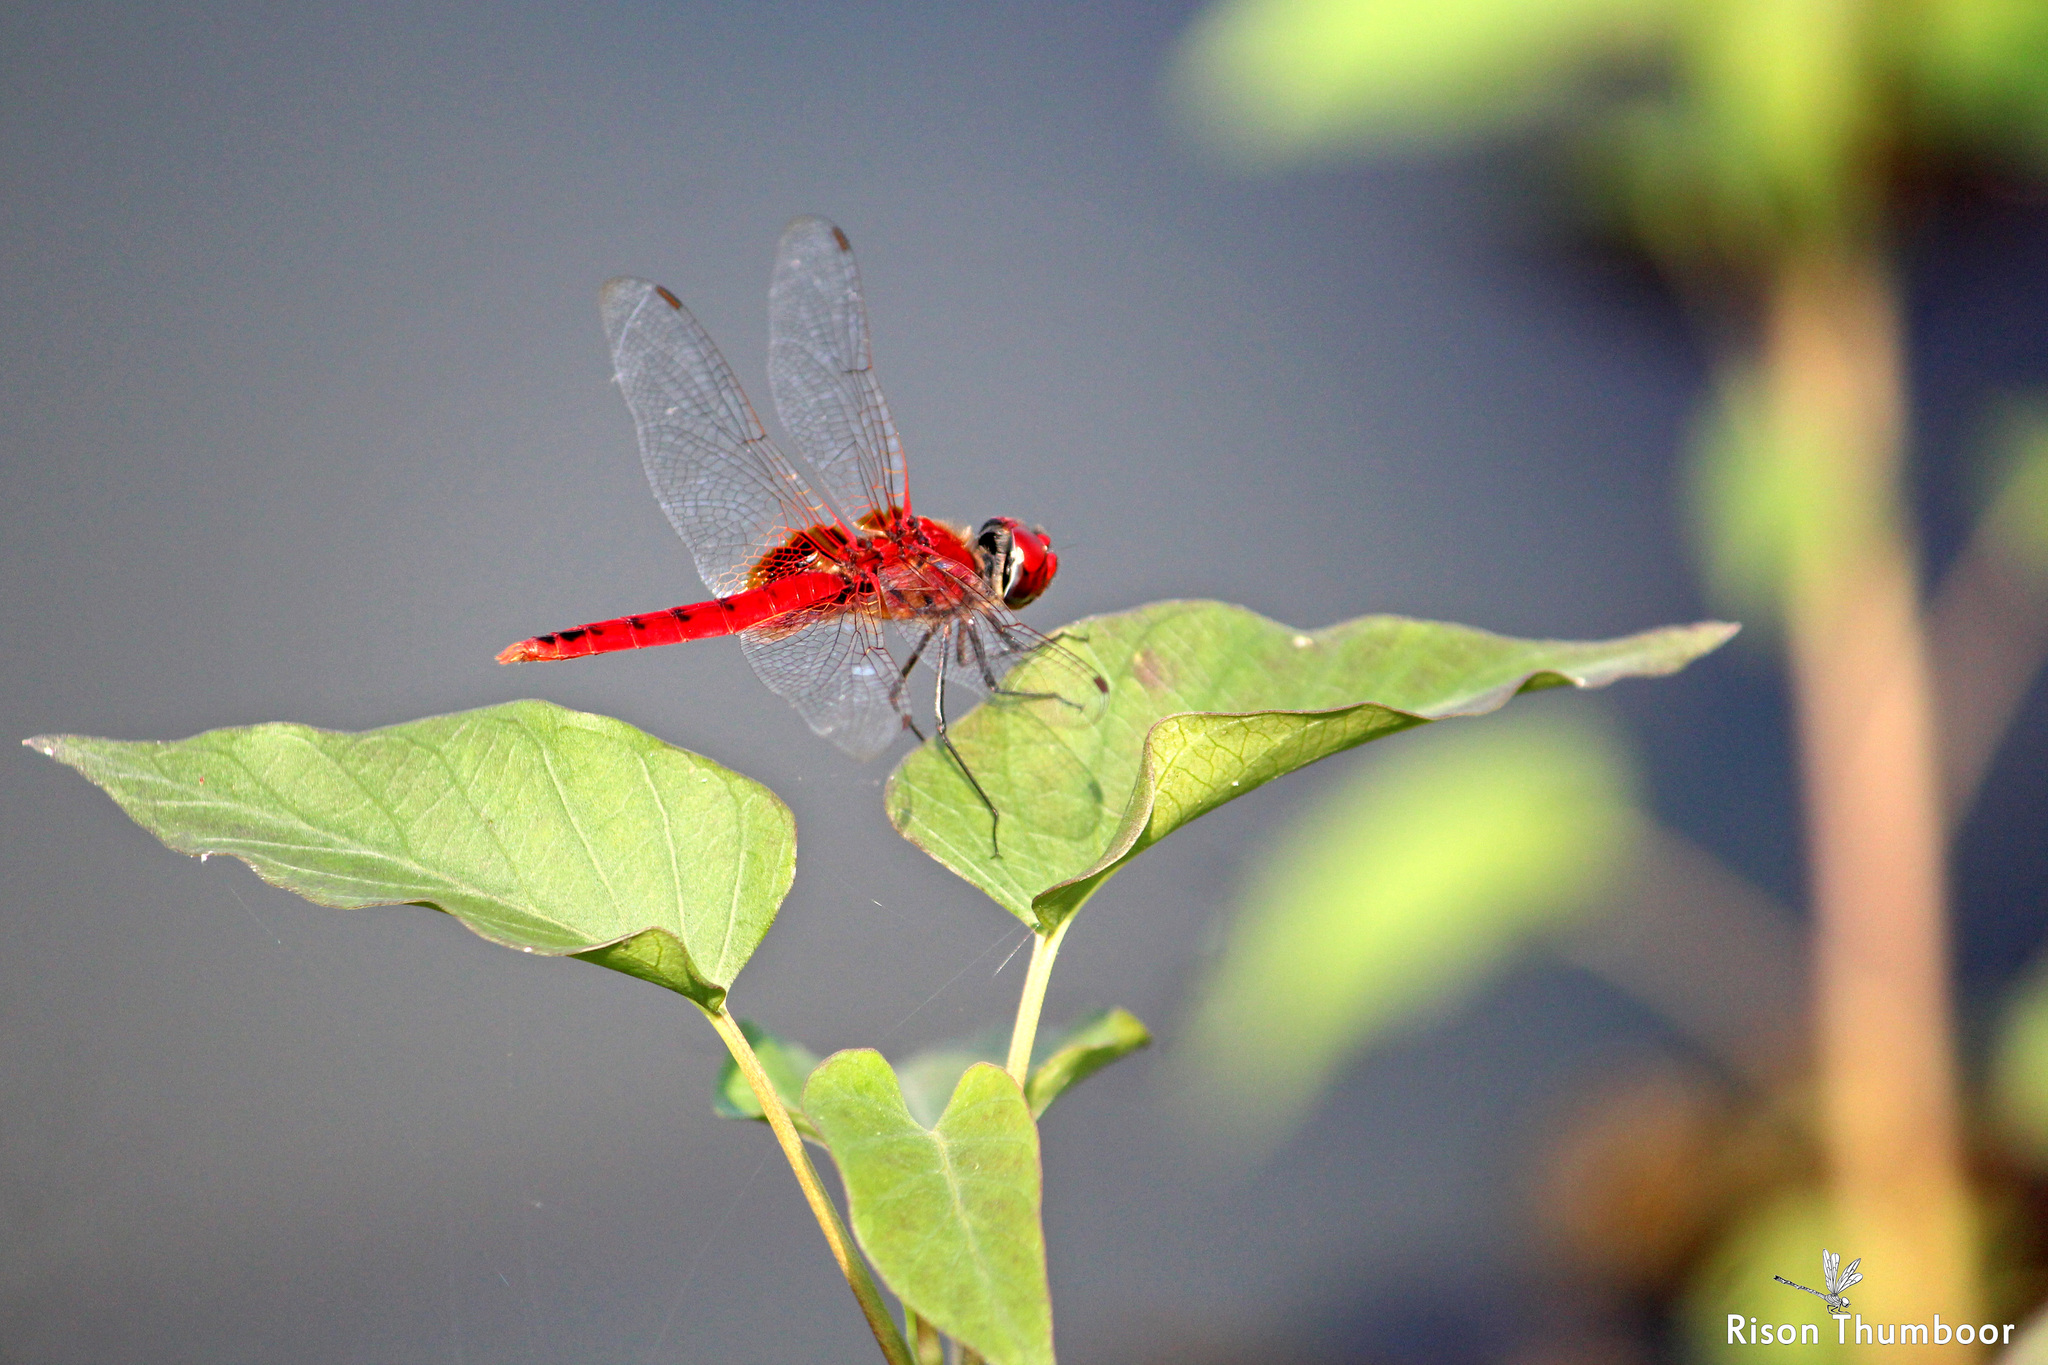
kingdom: Animalia
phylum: Arthropoda
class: Insecta
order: Odonata
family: Libellulidae
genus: Urothemis
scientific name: Urothemis signata
